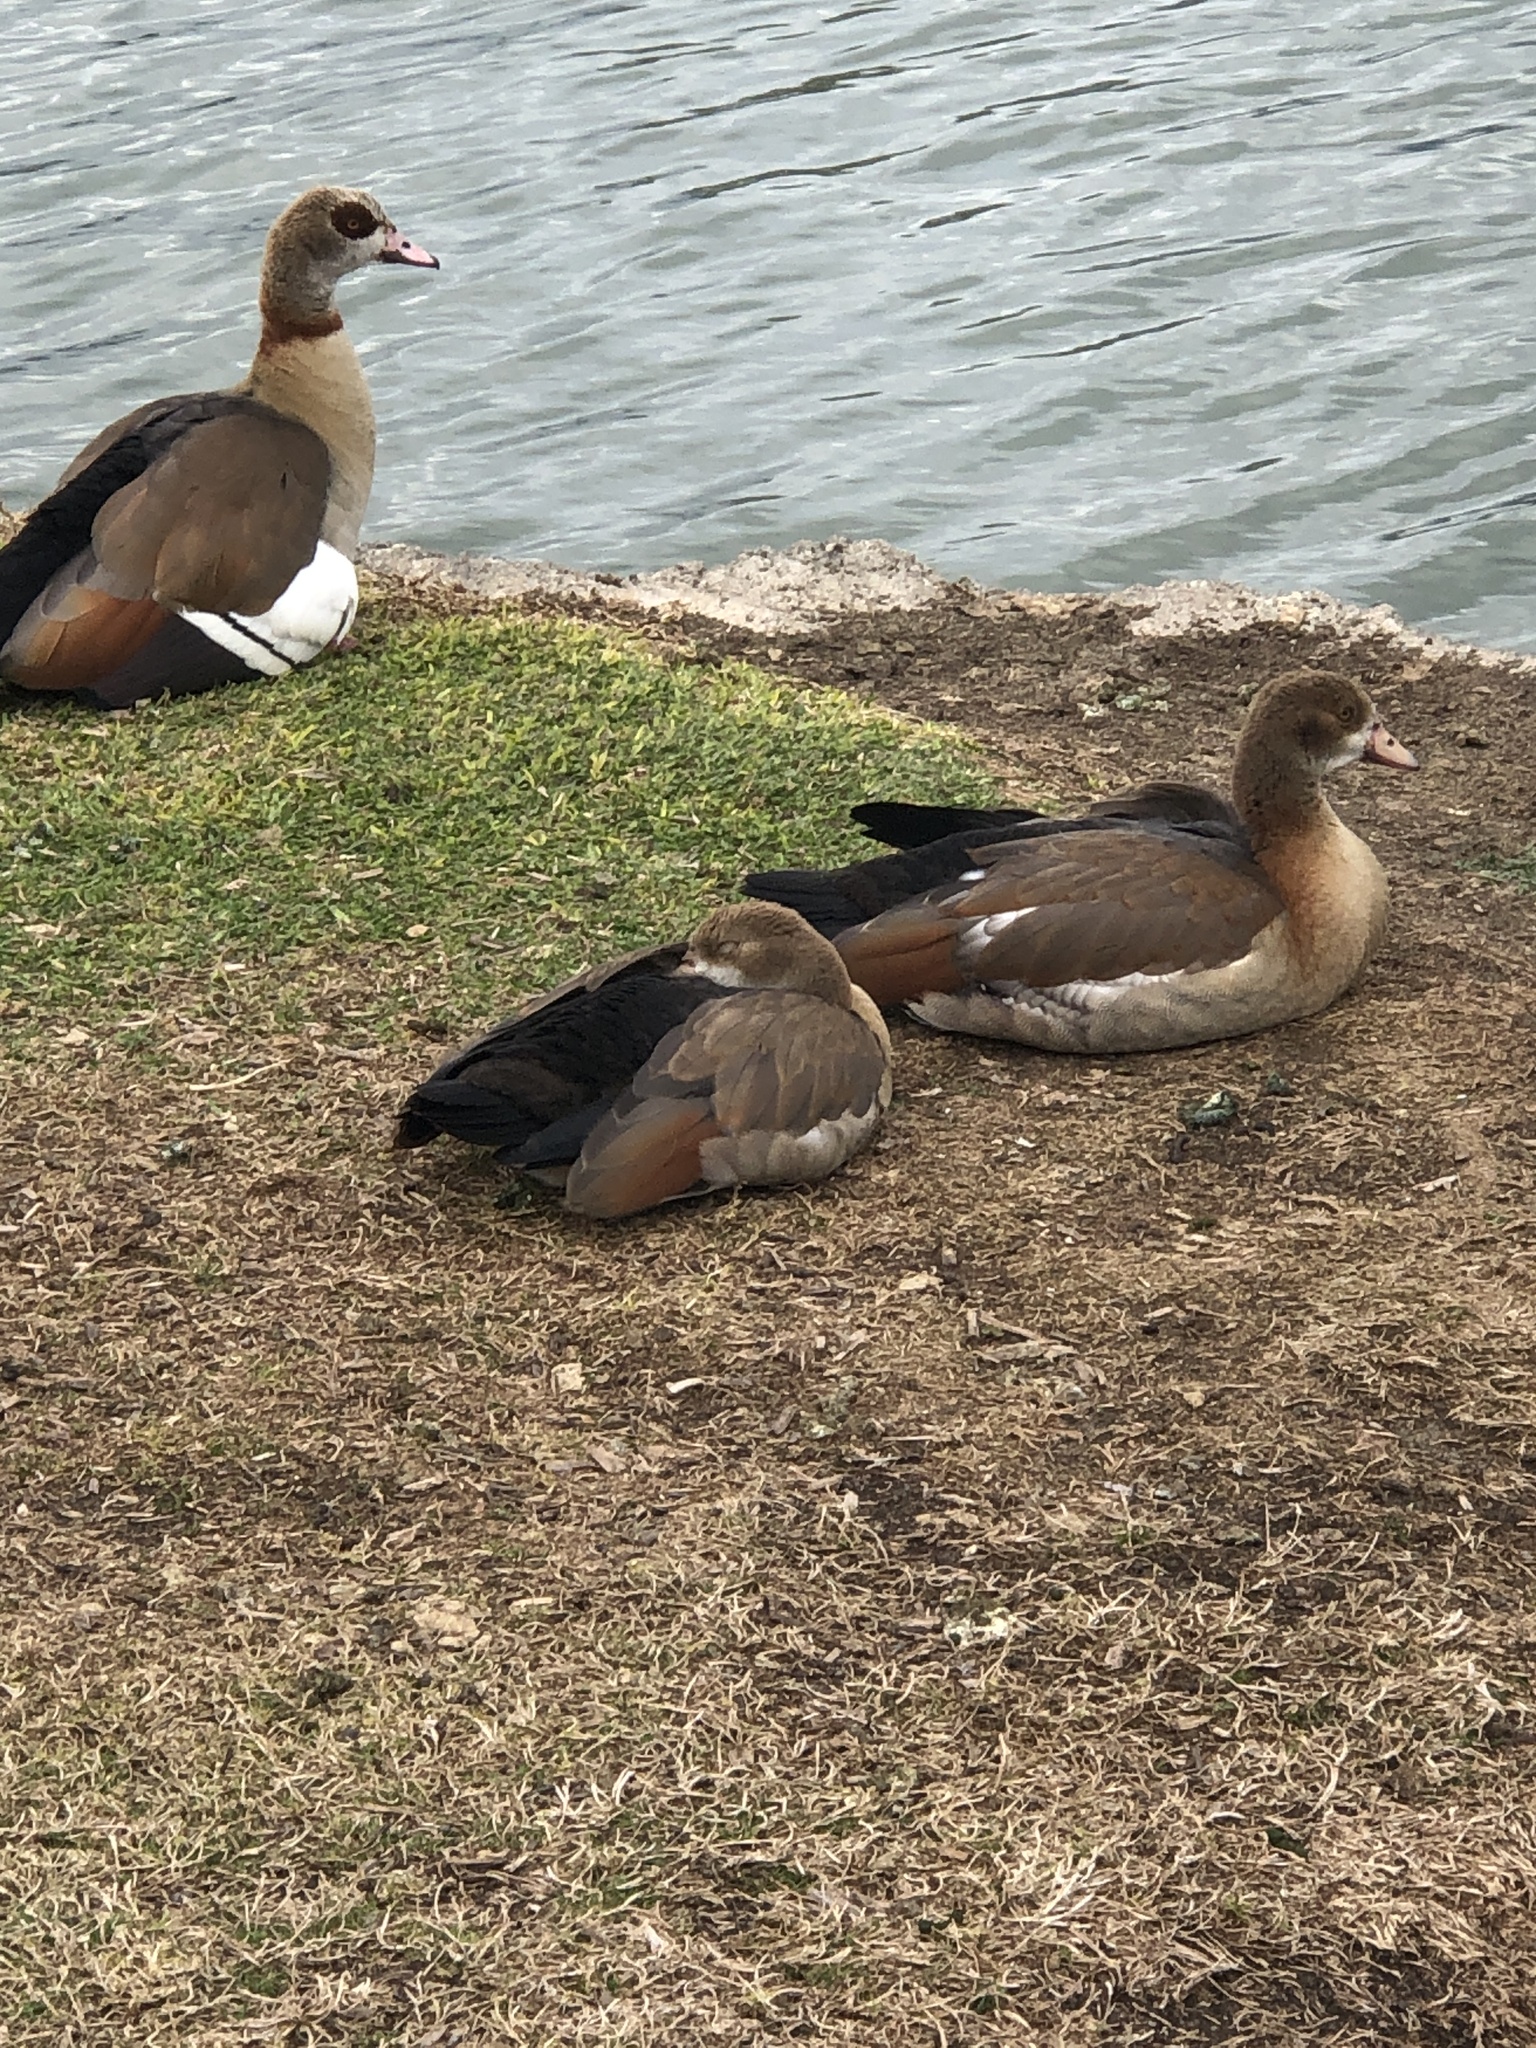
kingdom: Animalia
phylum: Chordata
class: Aves
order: Anseriformes
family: Anatidae
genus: Alopochen
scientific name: Alopochen aegyptiaca
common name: Egyptian goose
